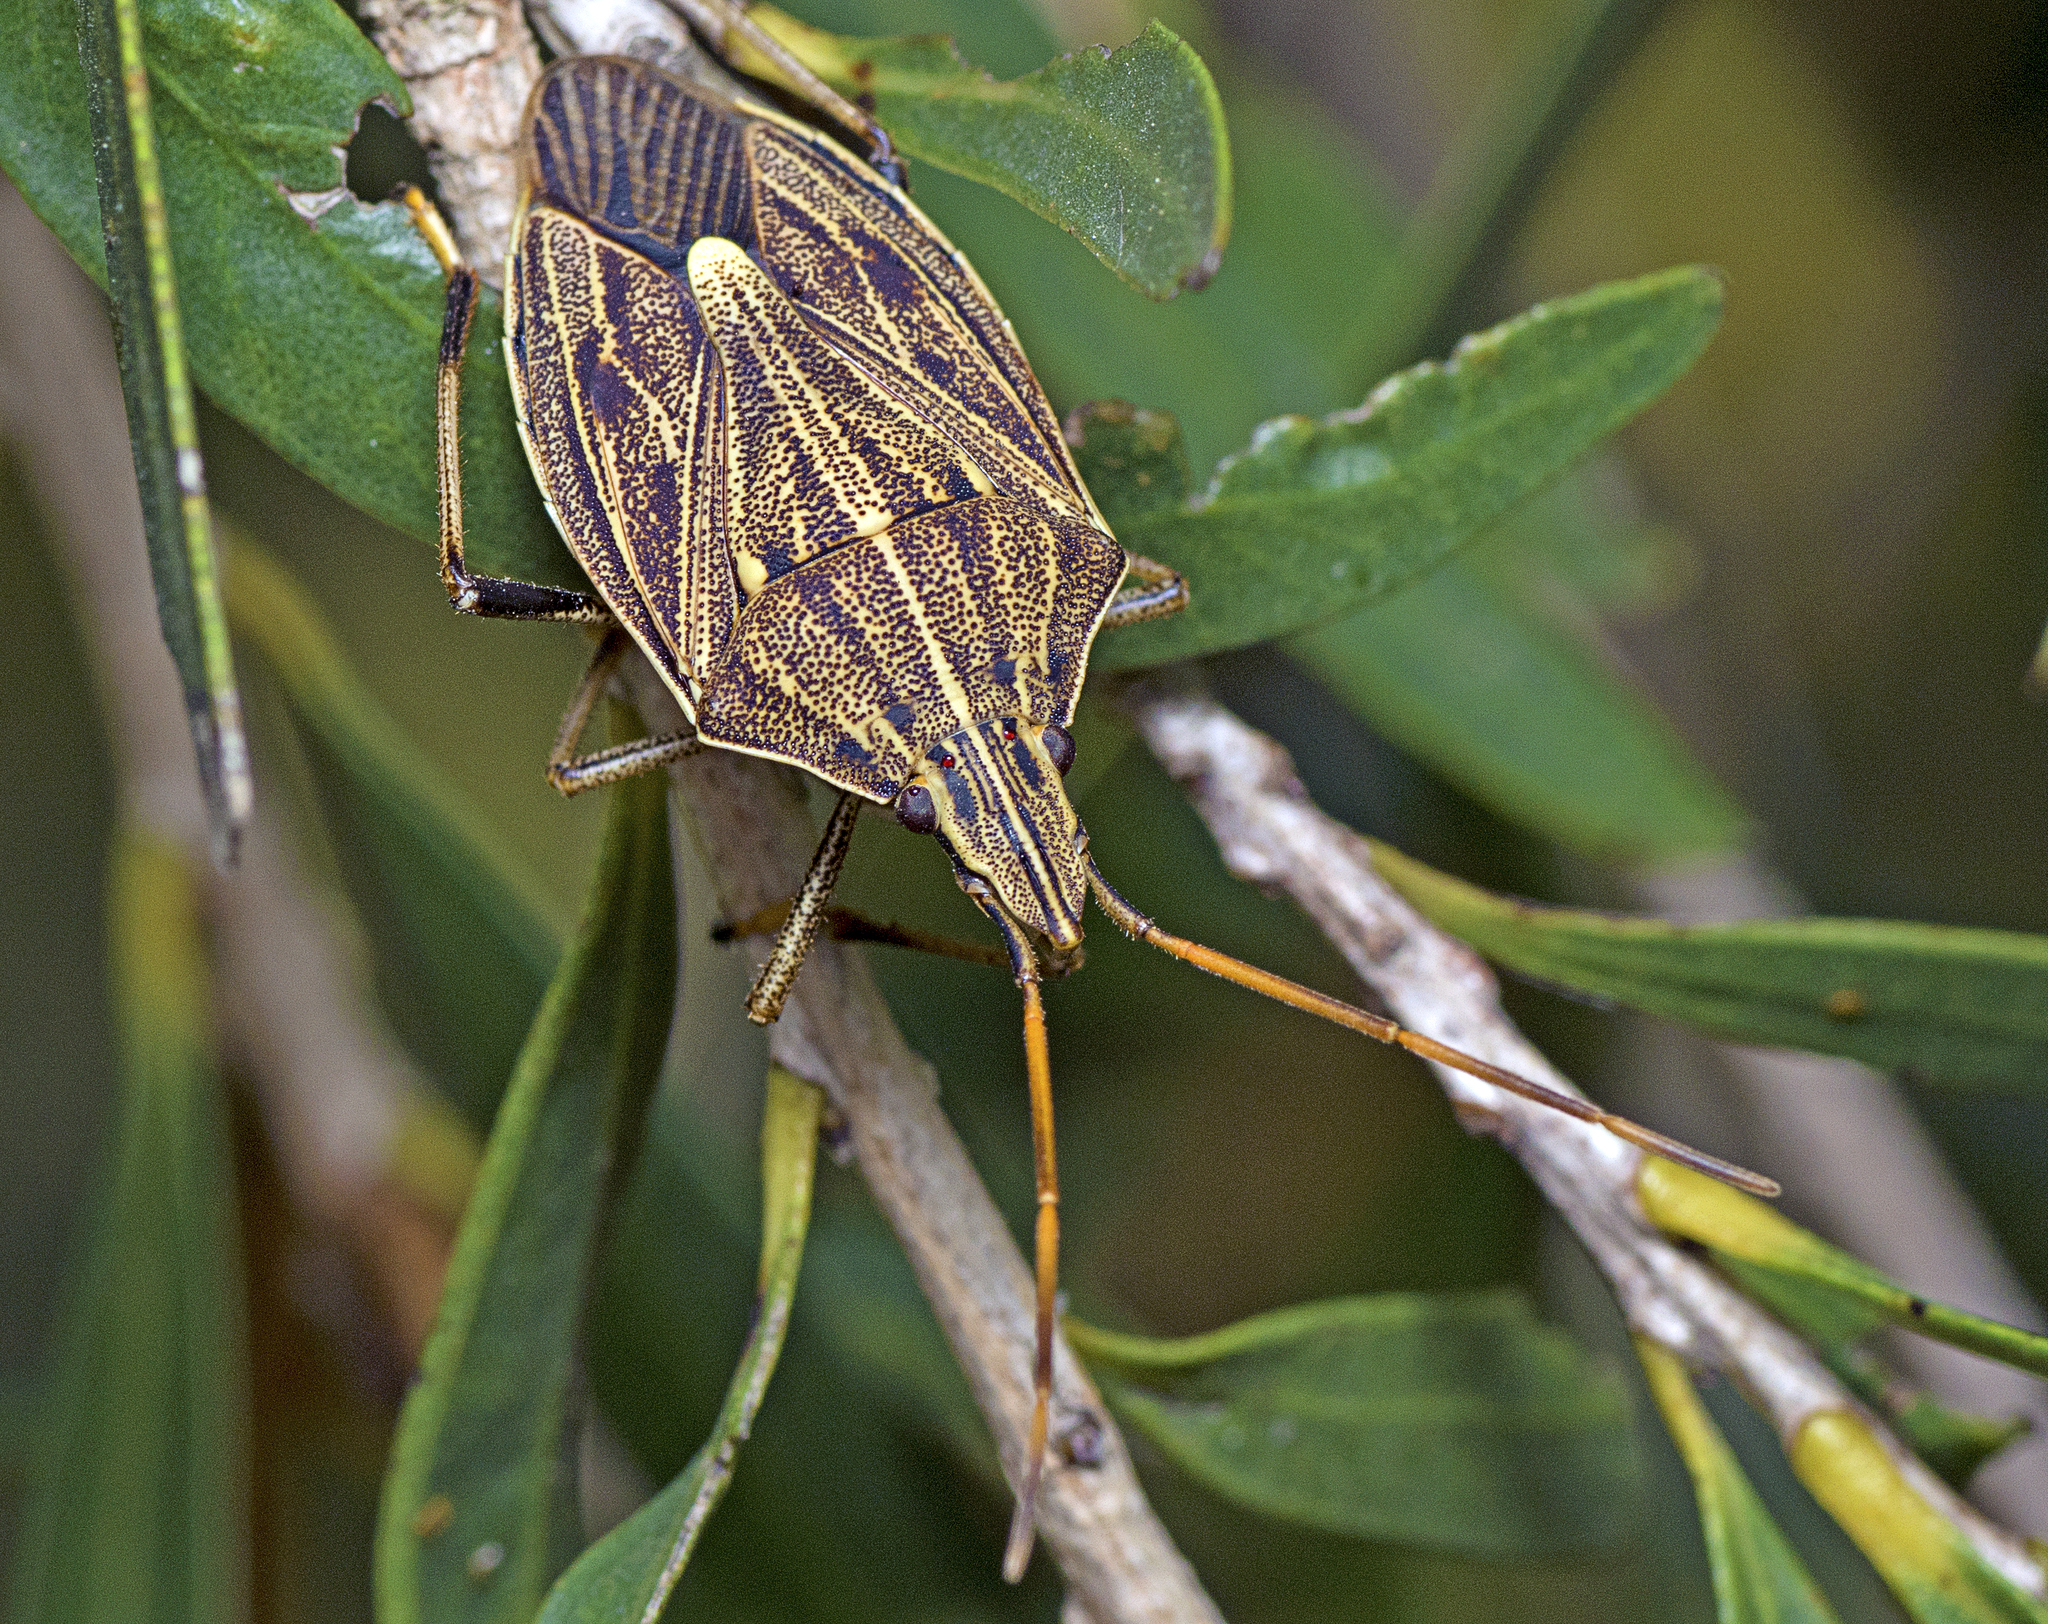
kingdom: Animalia
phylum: Arthropoda
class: Insecta
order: Hemiptera
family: Pentatomidae
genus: Poecilometis
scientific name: Poecilometis
